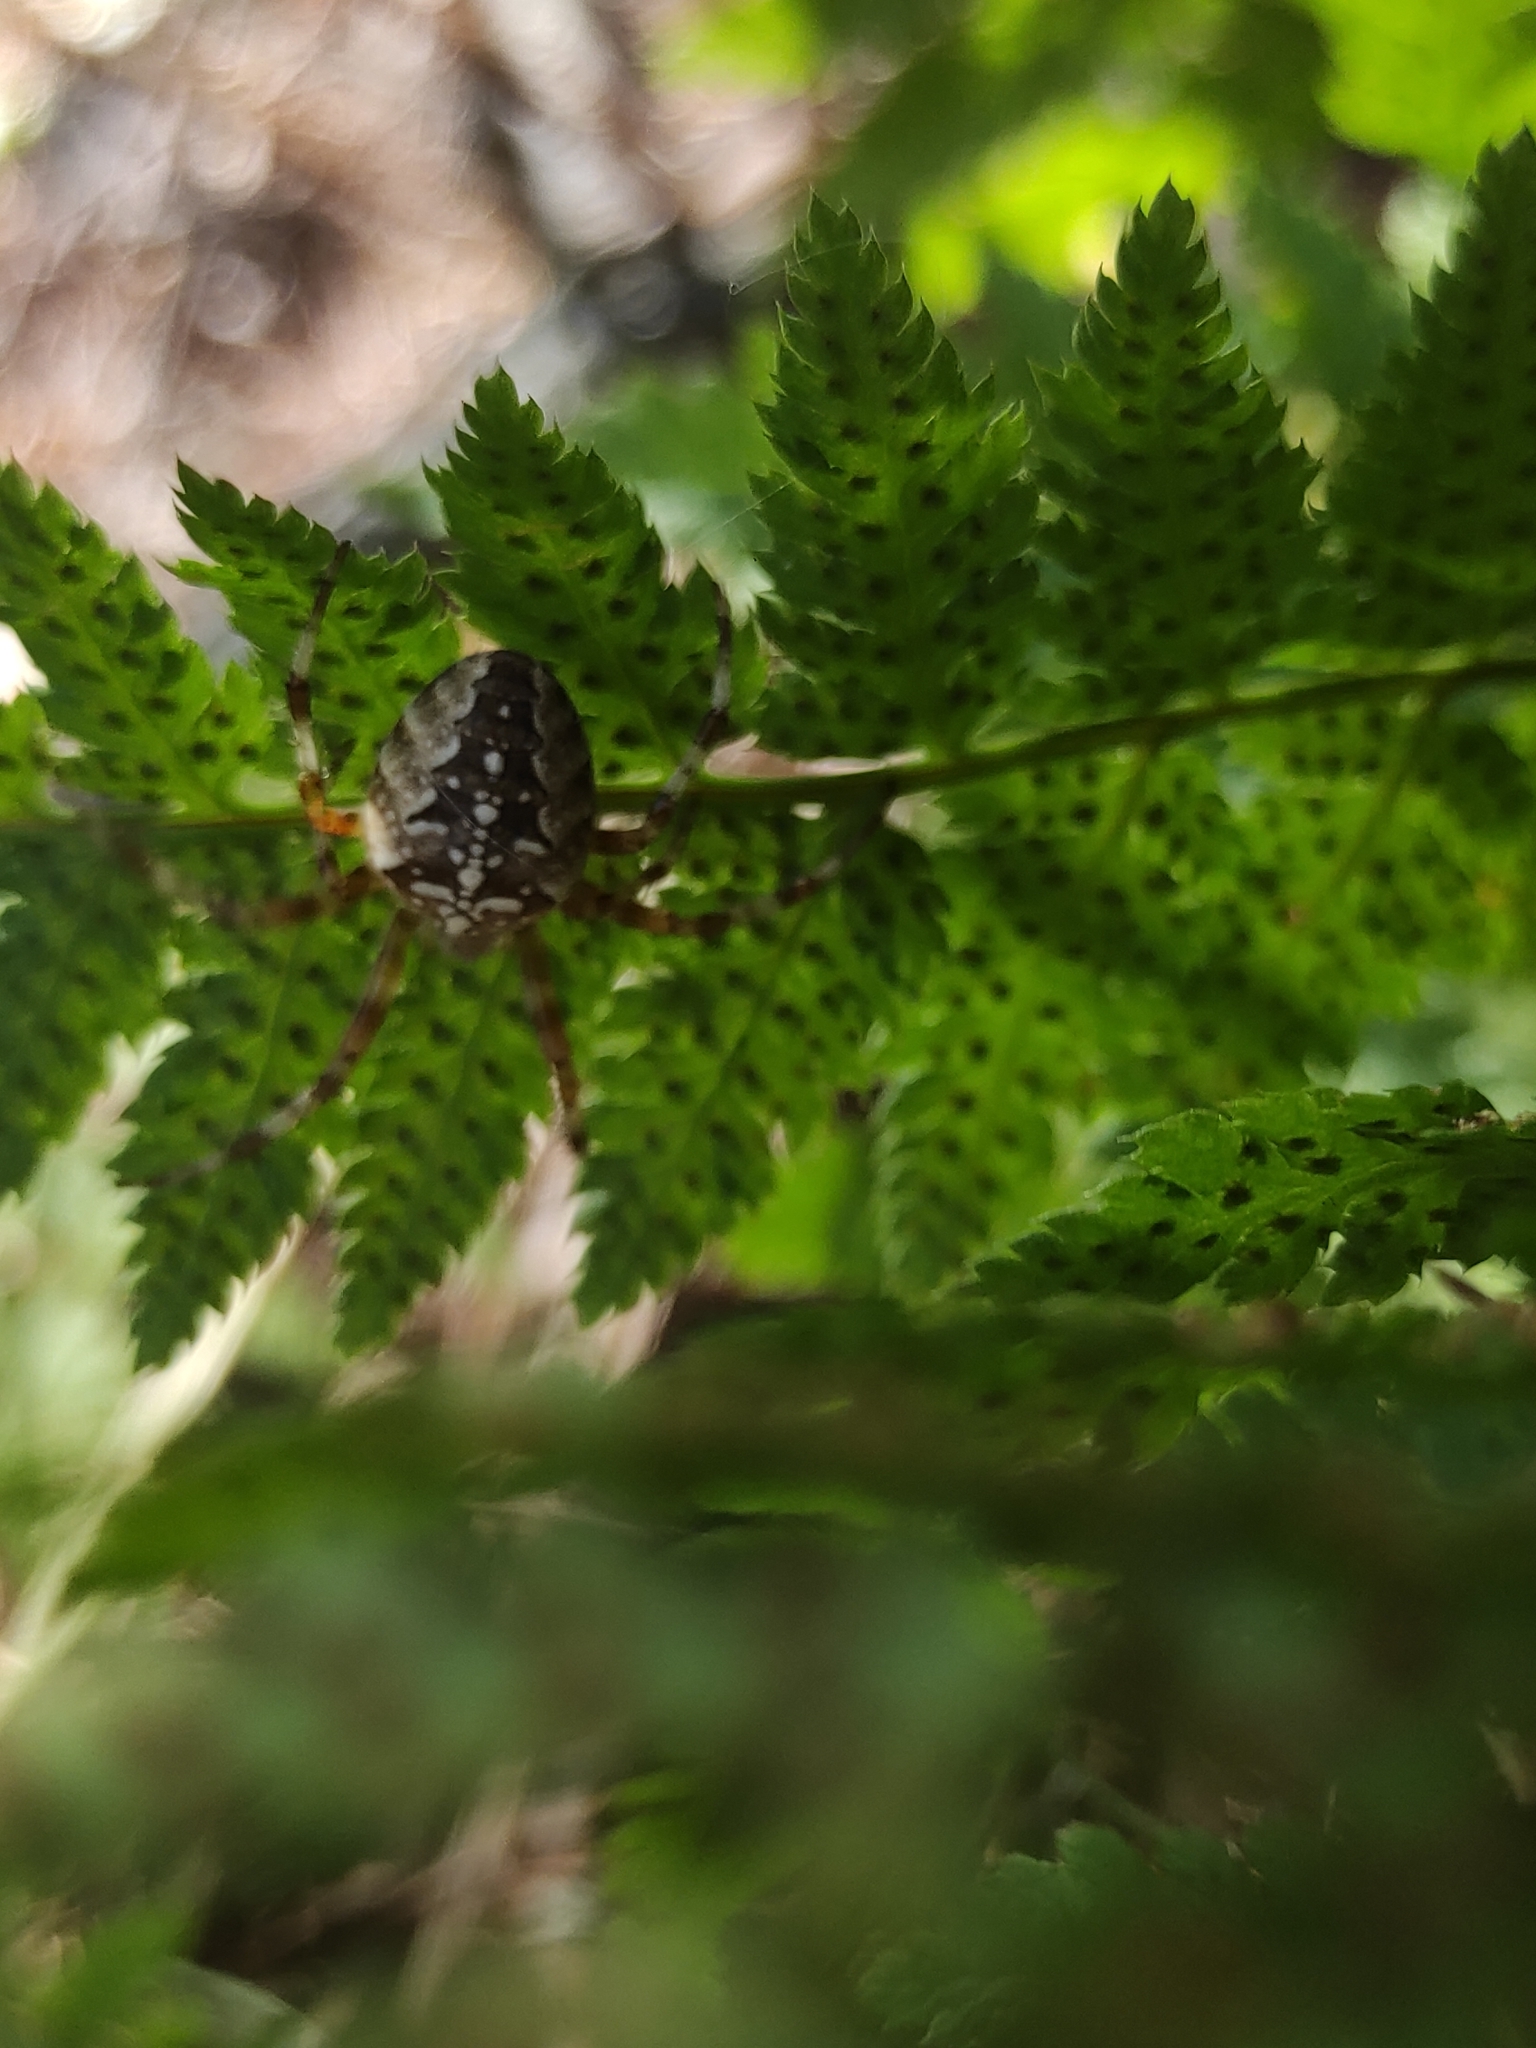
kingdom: Animalia
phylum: Arthropoda
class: Arachnida
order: Araneae
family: Araneidae
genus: Araneus
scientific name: Araneus diadematus
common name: Cross orbweaver
